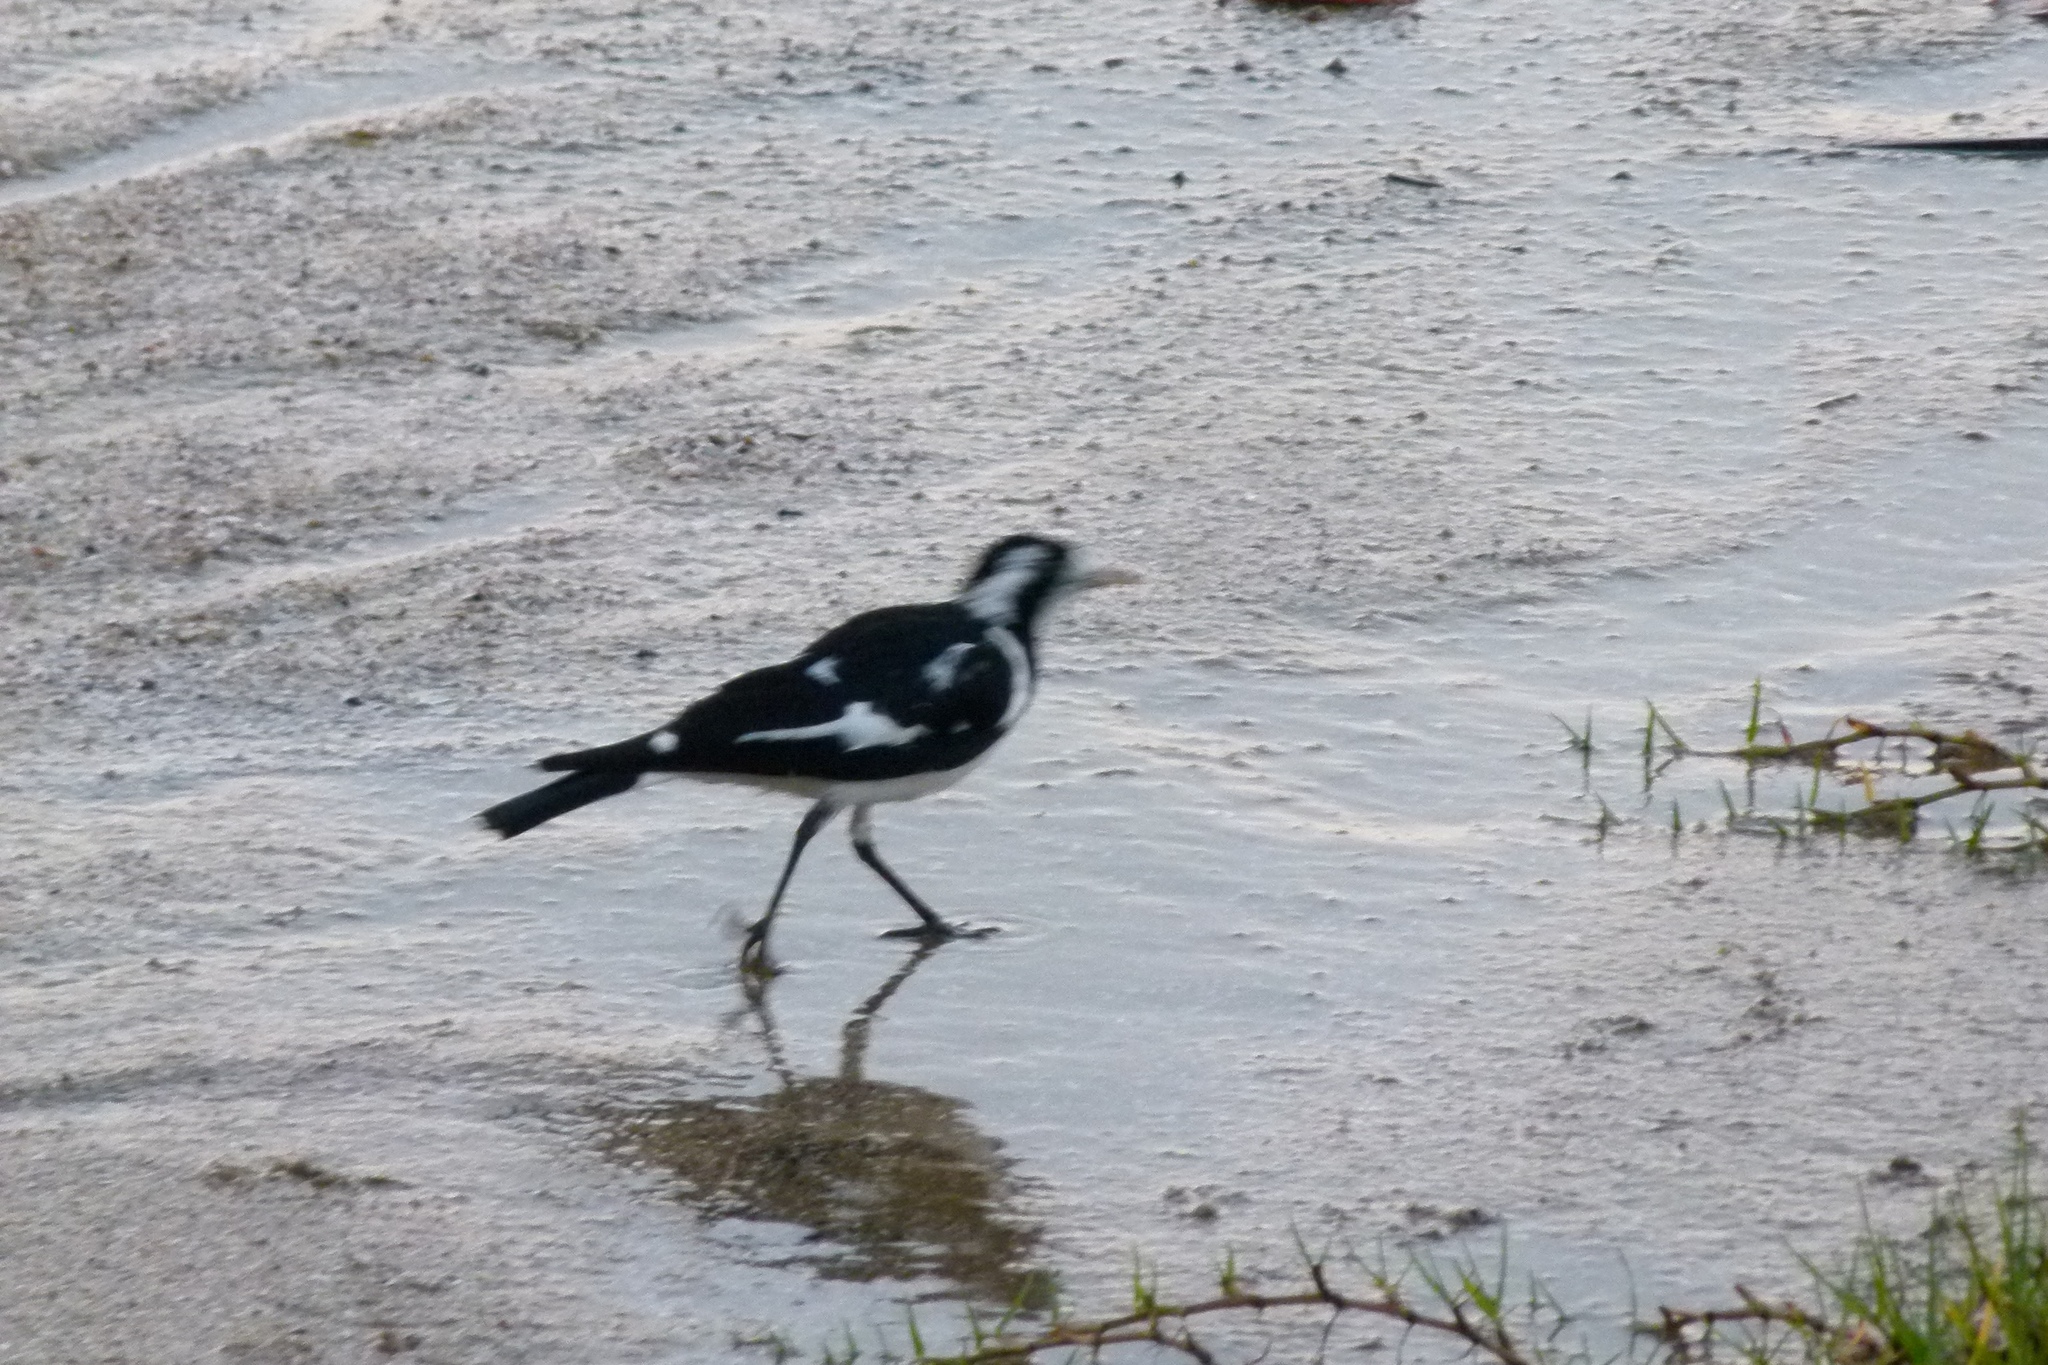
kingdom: Animalia
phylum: Chordata
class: Aves
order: Passeriformes
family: Monarchidae
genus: Grallina
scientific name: Grallina cyanoleuca
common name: Magpie-lark
